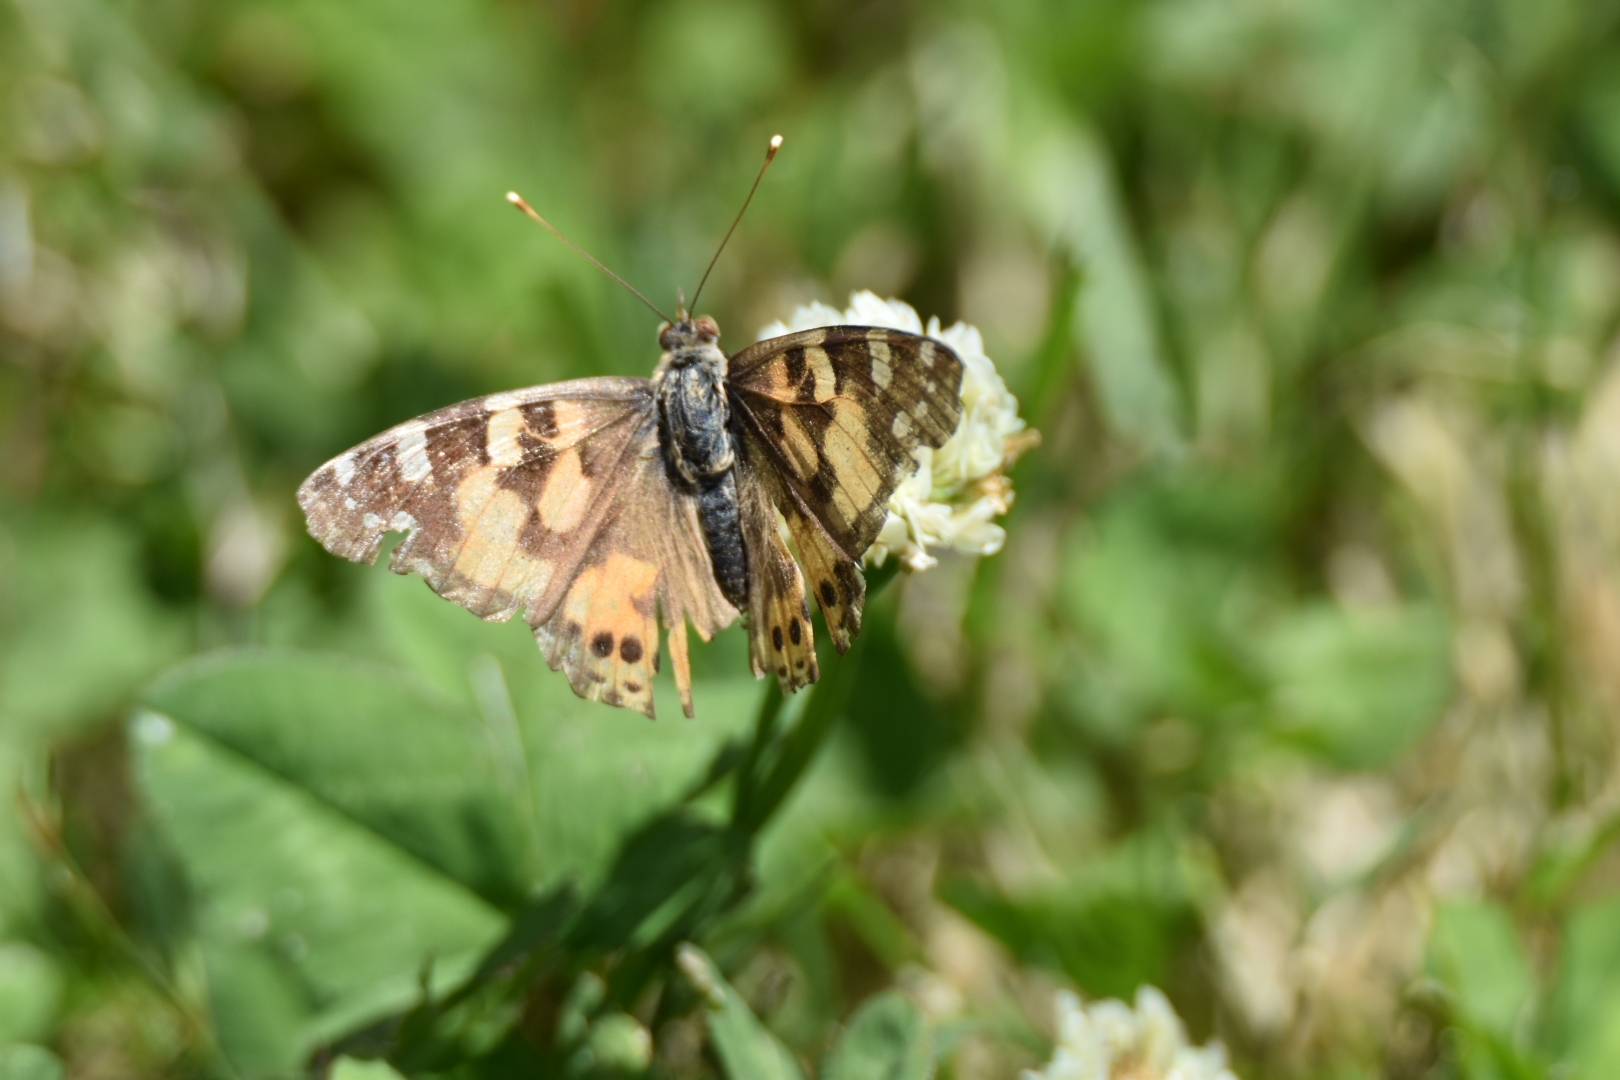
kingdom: Animalia
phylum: Arthropoda
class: Insecta
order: Lepidoptera
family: Nymphalidae
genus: Vanessa
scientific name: Vanessa kershawi
